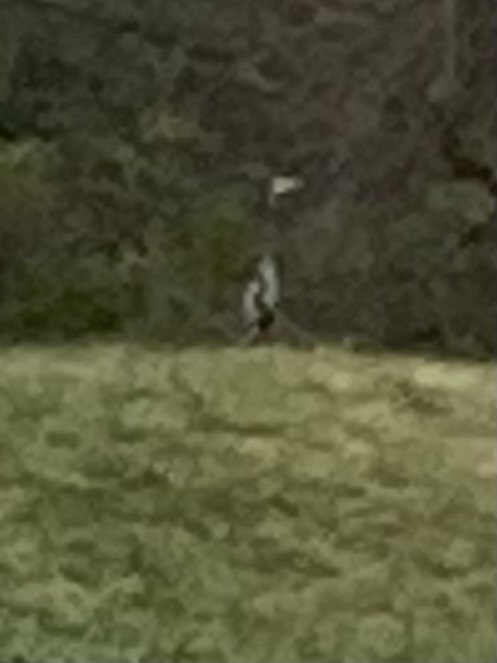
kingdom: Animalia
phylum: Chordata
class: Aves
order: Pelecaniformes
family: Ardeidae
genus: Ardea
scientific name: Ardea herodias
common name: Great blue heron
